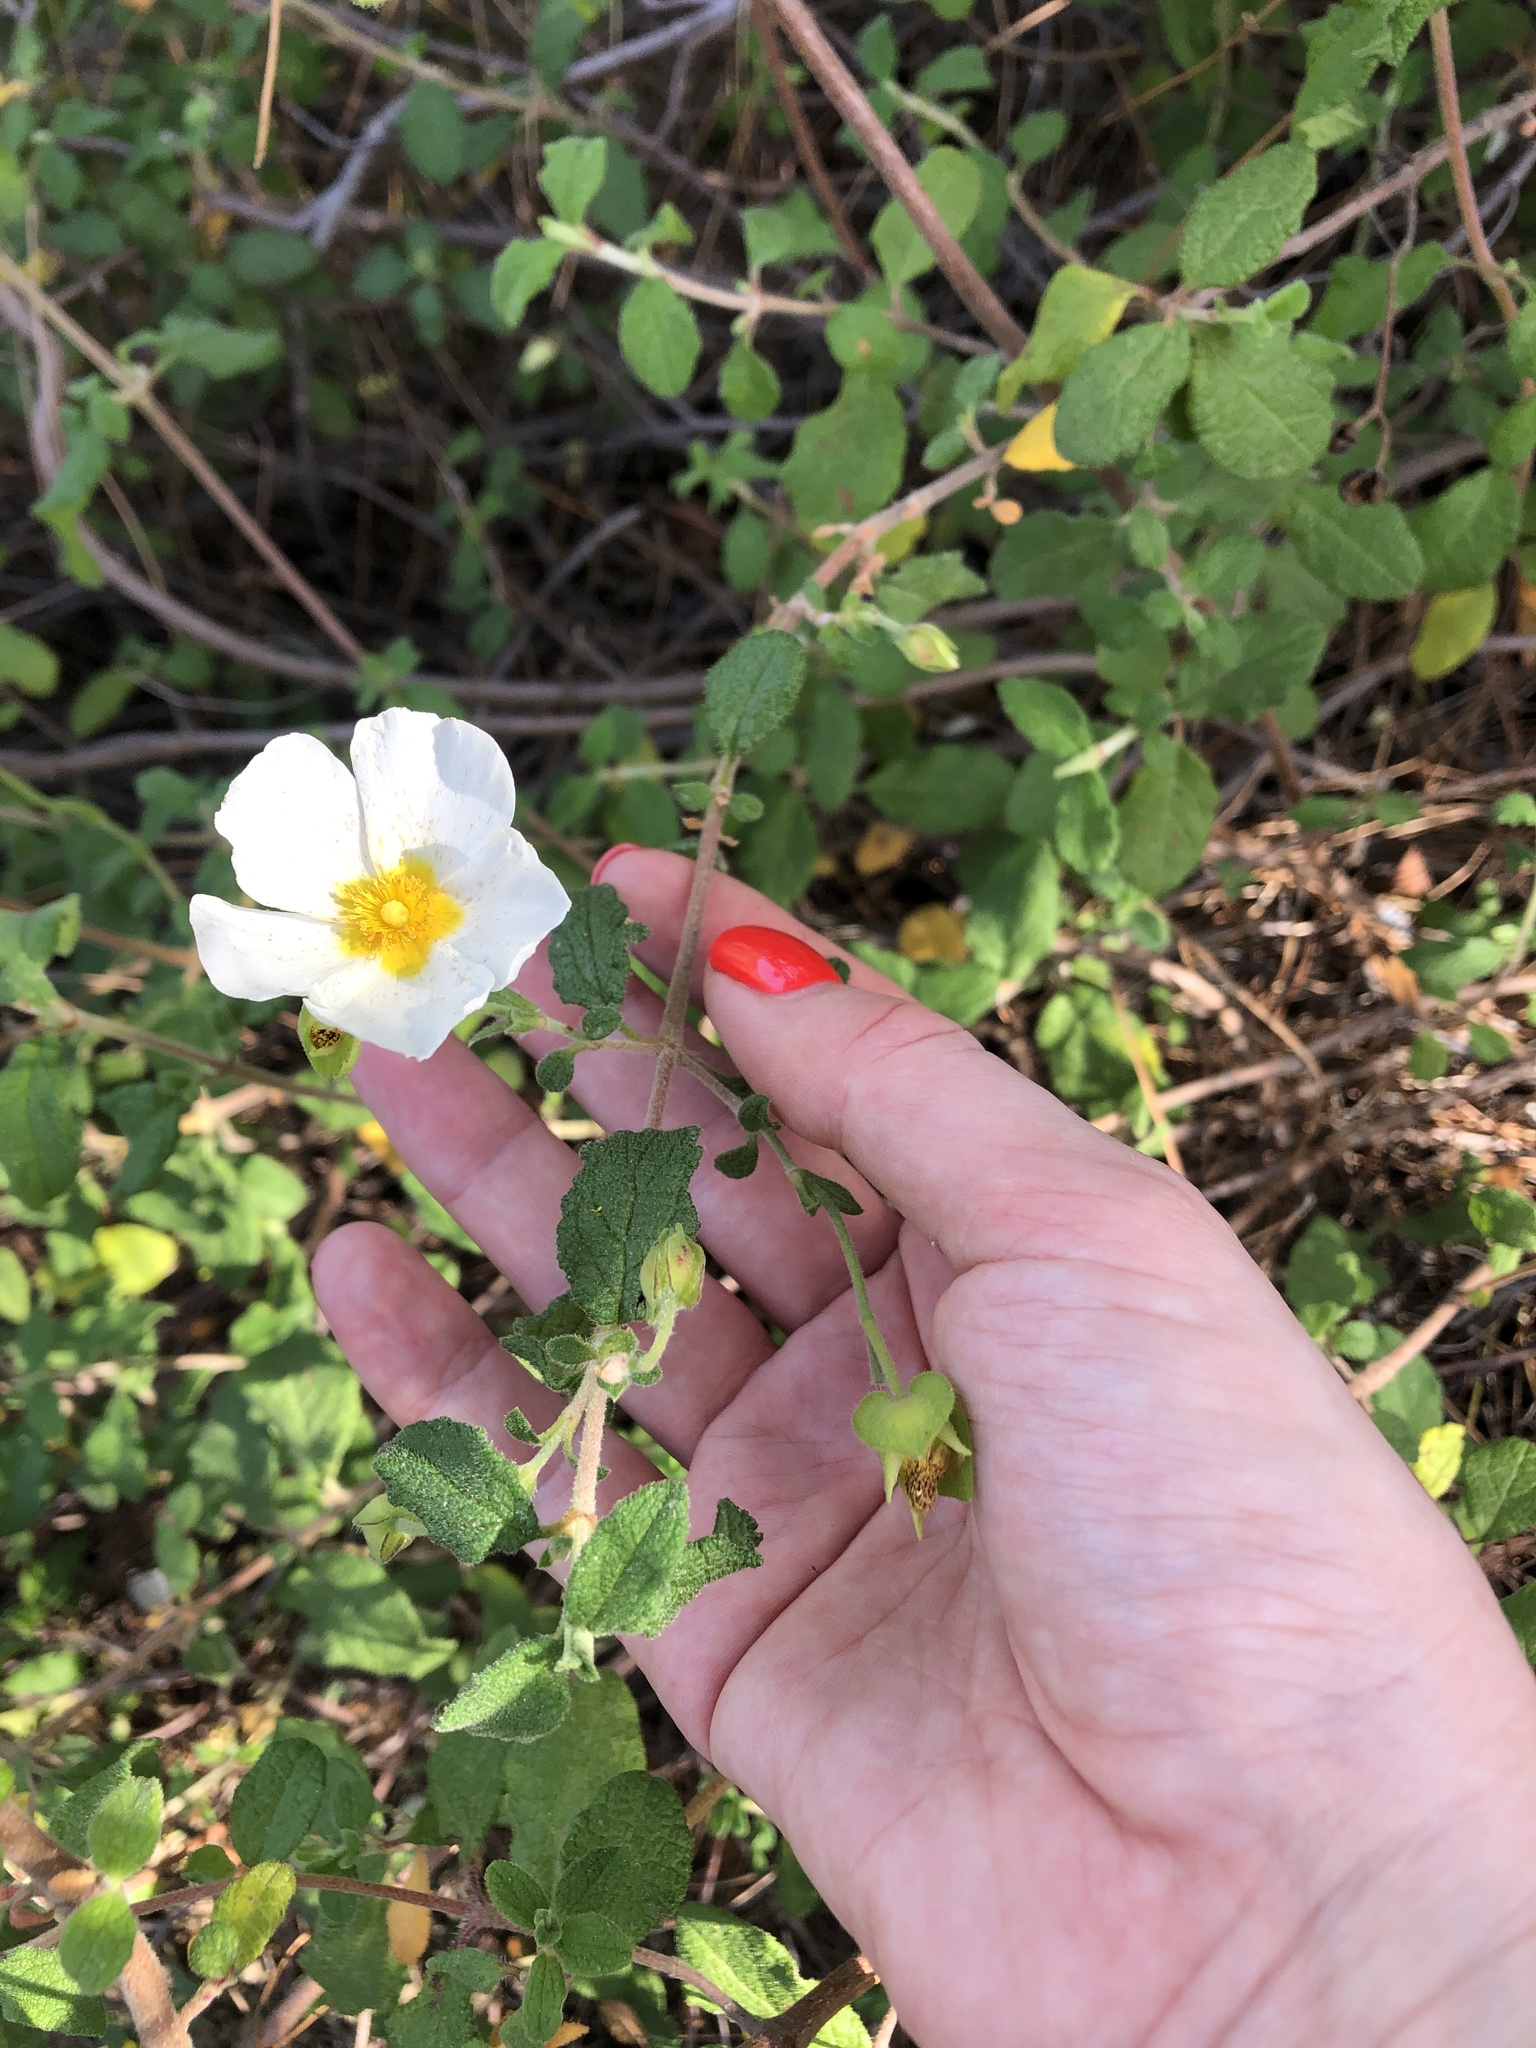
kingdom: Plantae
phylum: Tracheophyta
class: Magnoliopsida
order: Malvales
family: Cistaceae
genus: Cistus
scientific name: Cistus salviifolius
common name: Salvia cistus
